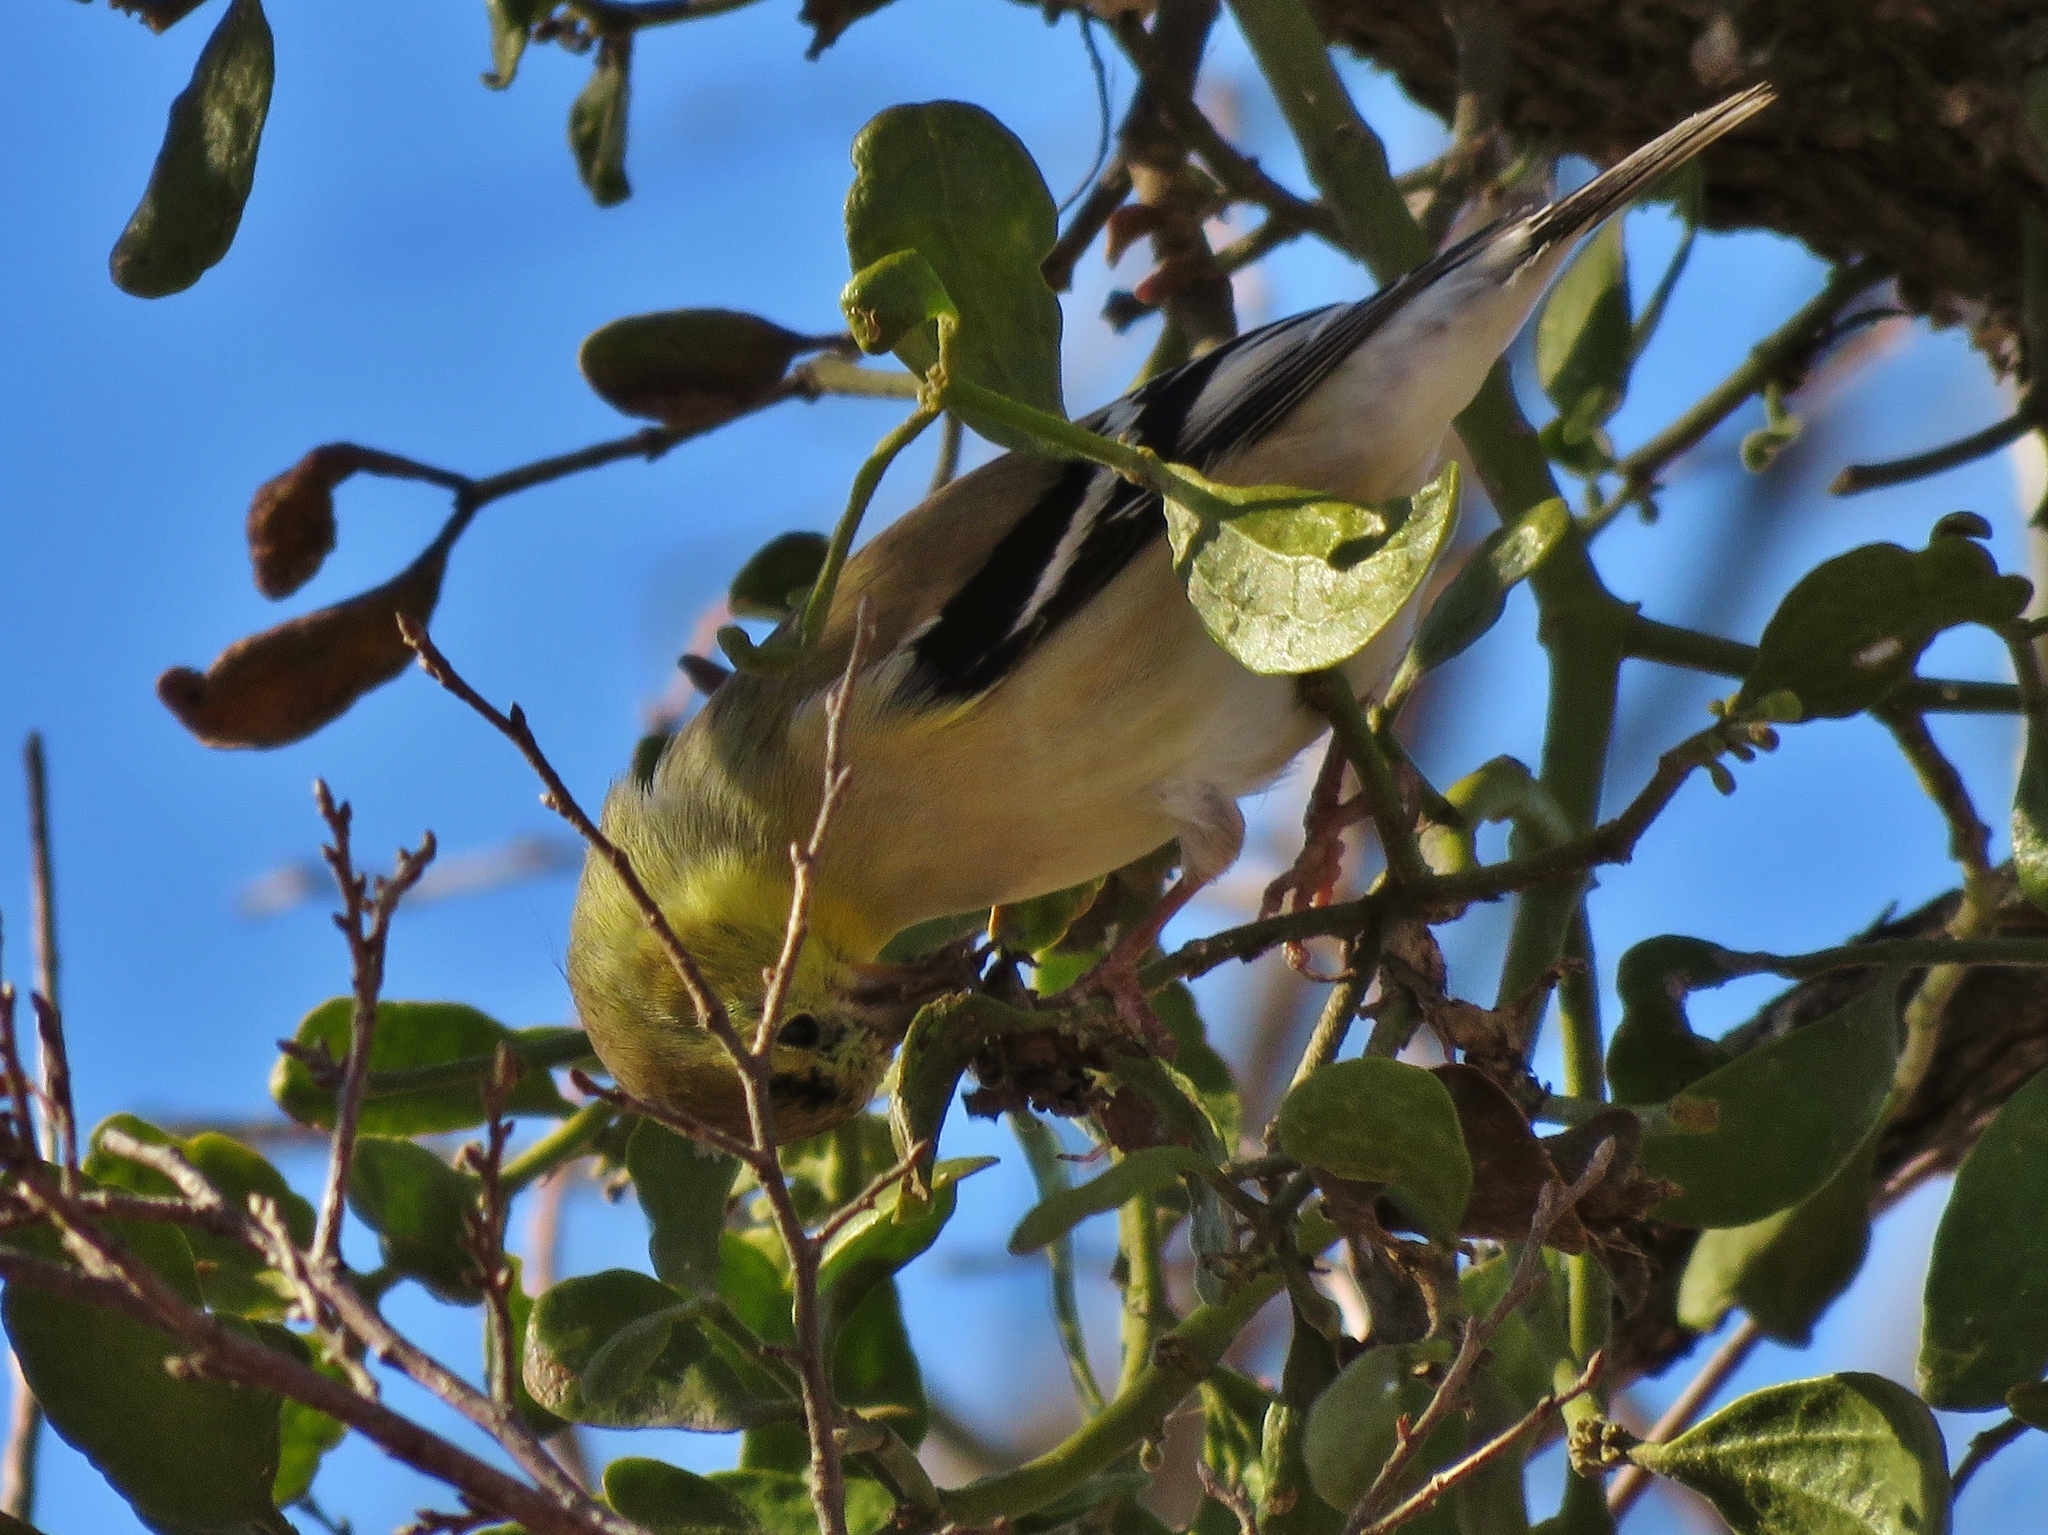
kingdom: Animalia
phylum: Chordata
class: Aves
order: Passeriformes
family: Fringillidae
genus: Spinus
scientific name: Spinus tristis
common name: American goldfinch
